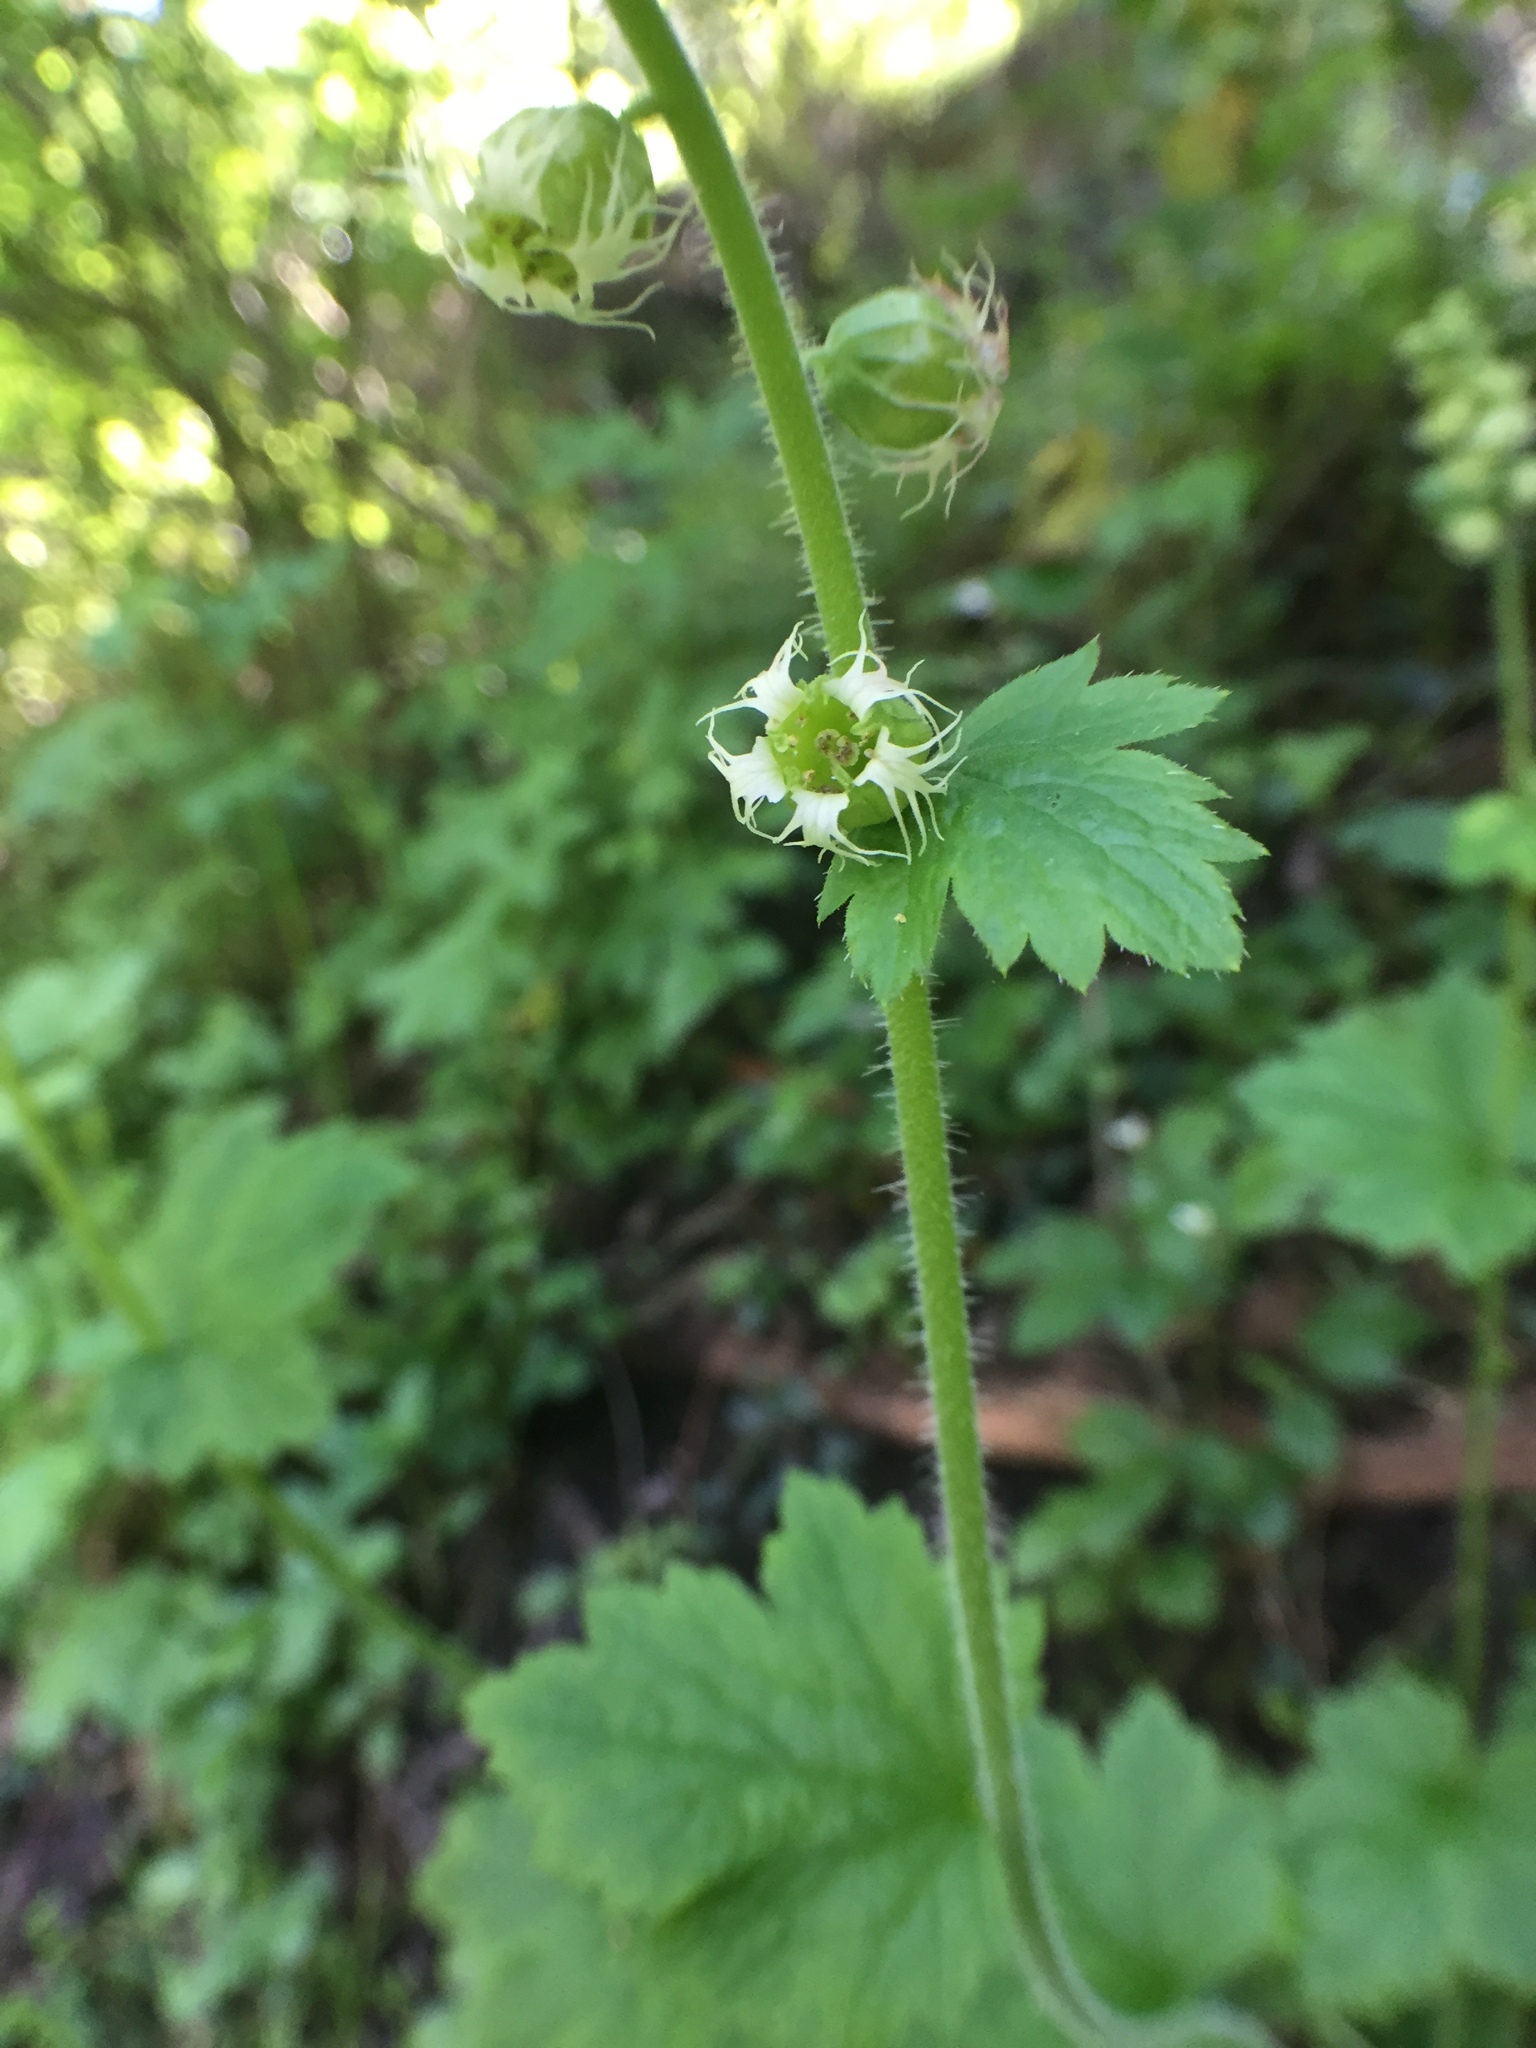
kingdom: Plantae
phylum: Tracheophyta
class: Magnoliopsida
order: Saxifragales
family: Saxifragaceae
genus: Tellima
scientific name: Tellima grandiflora
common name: Fringecups
